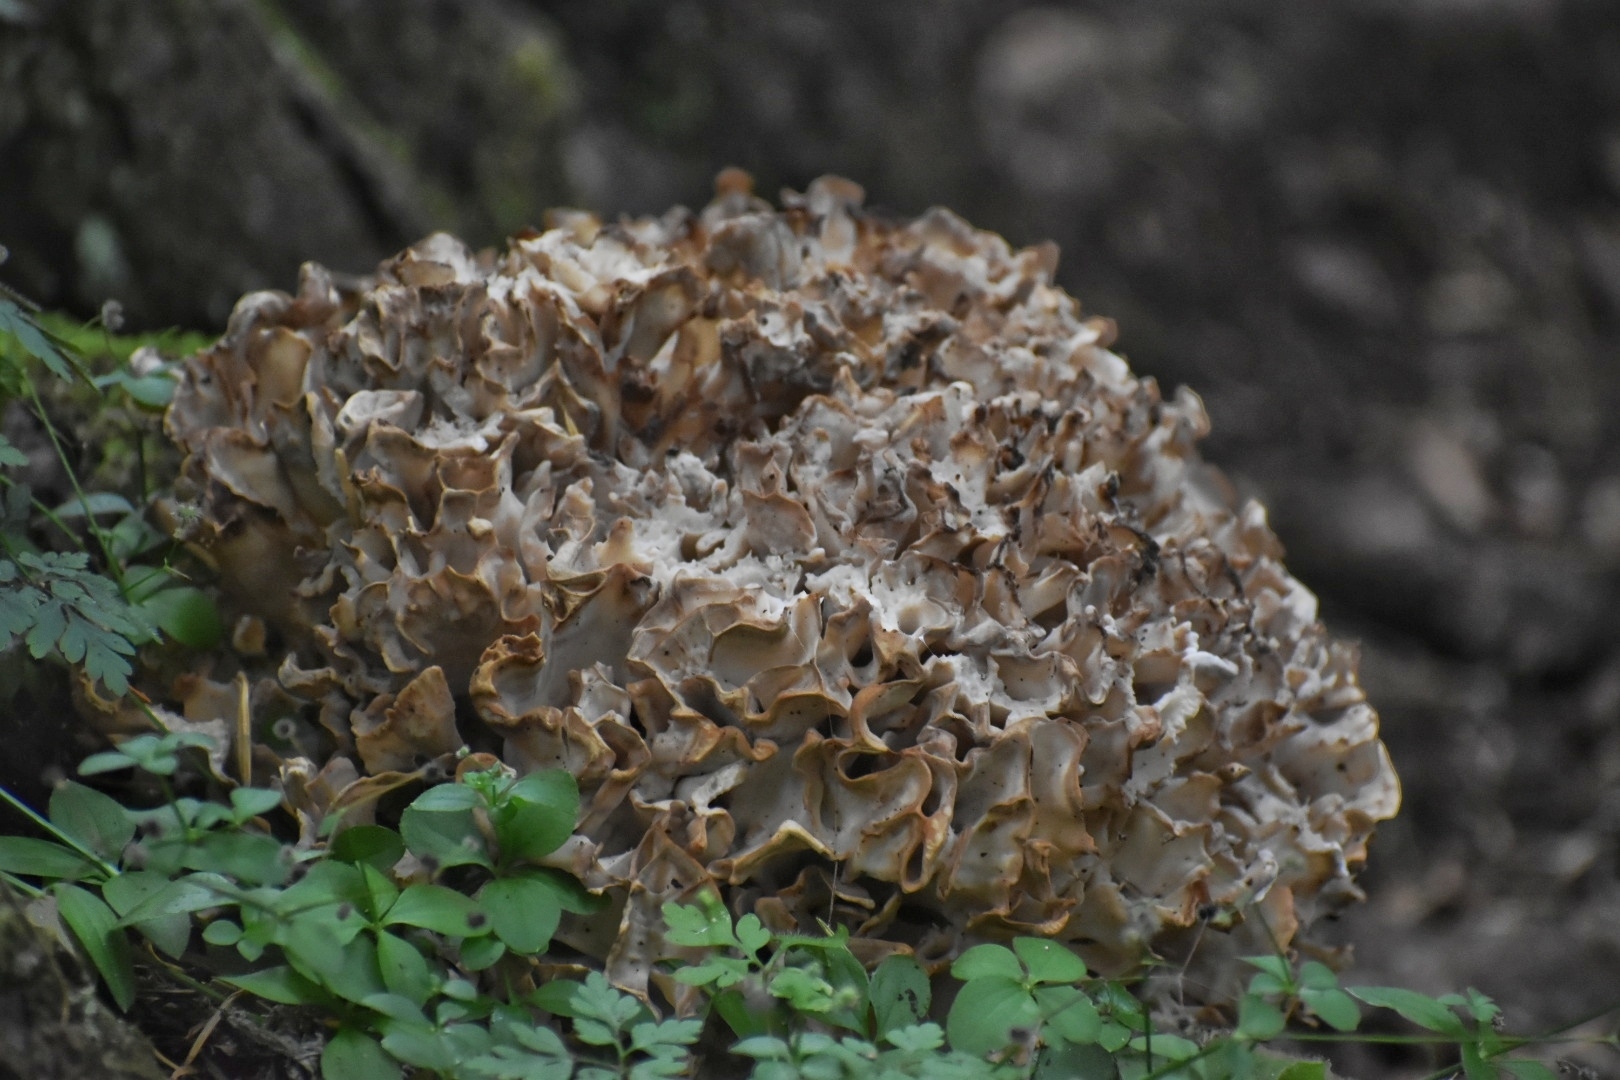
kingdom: Fungi
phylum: Basidiomycota
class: Agaricomycetes
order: Polyporales
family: Sparassidaceae
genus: Sparassis
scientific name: Sparassis crispa
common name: Brain fungus
